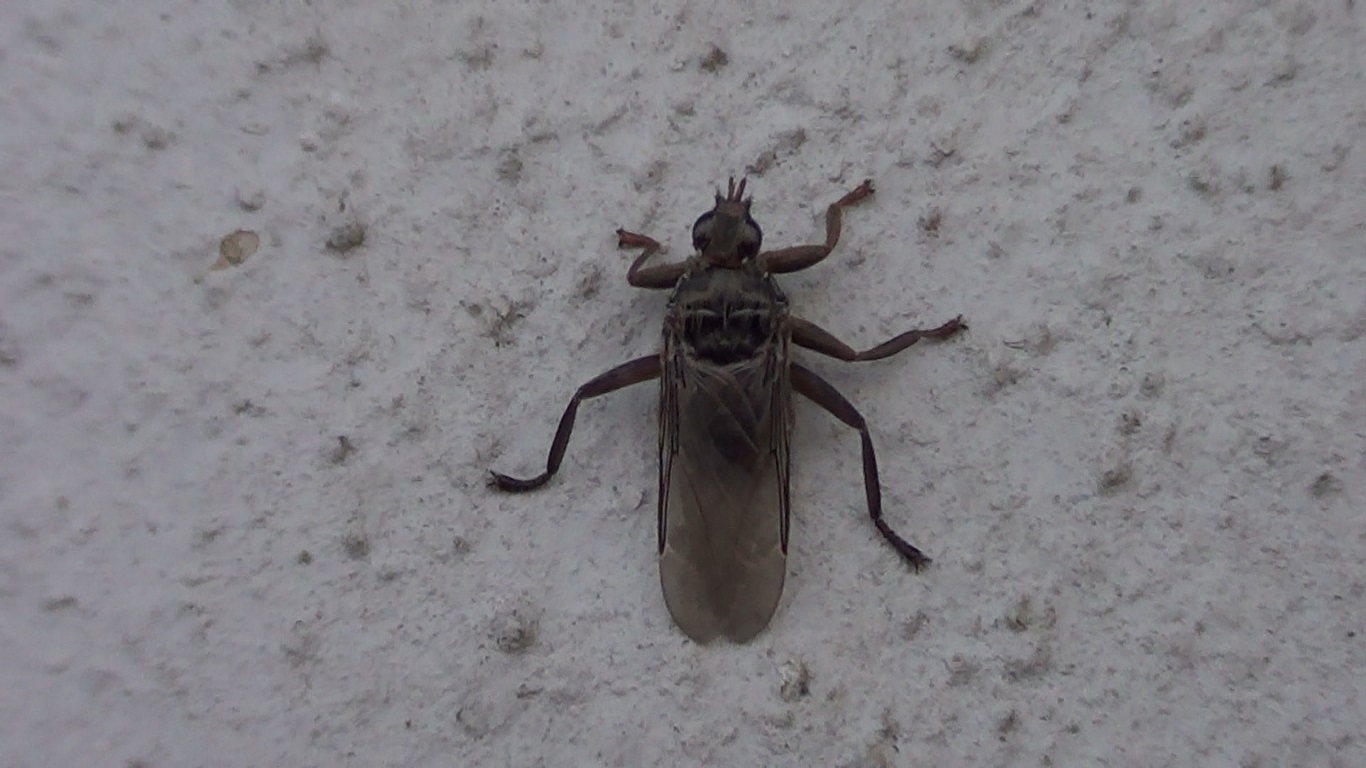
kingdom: Animalia
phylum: Arthropoda
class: Insecta
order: Diptera
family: Hippoboscidae
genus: Pseudolynchia
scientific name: Pseudolynchia canariensis
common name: Louse fly
